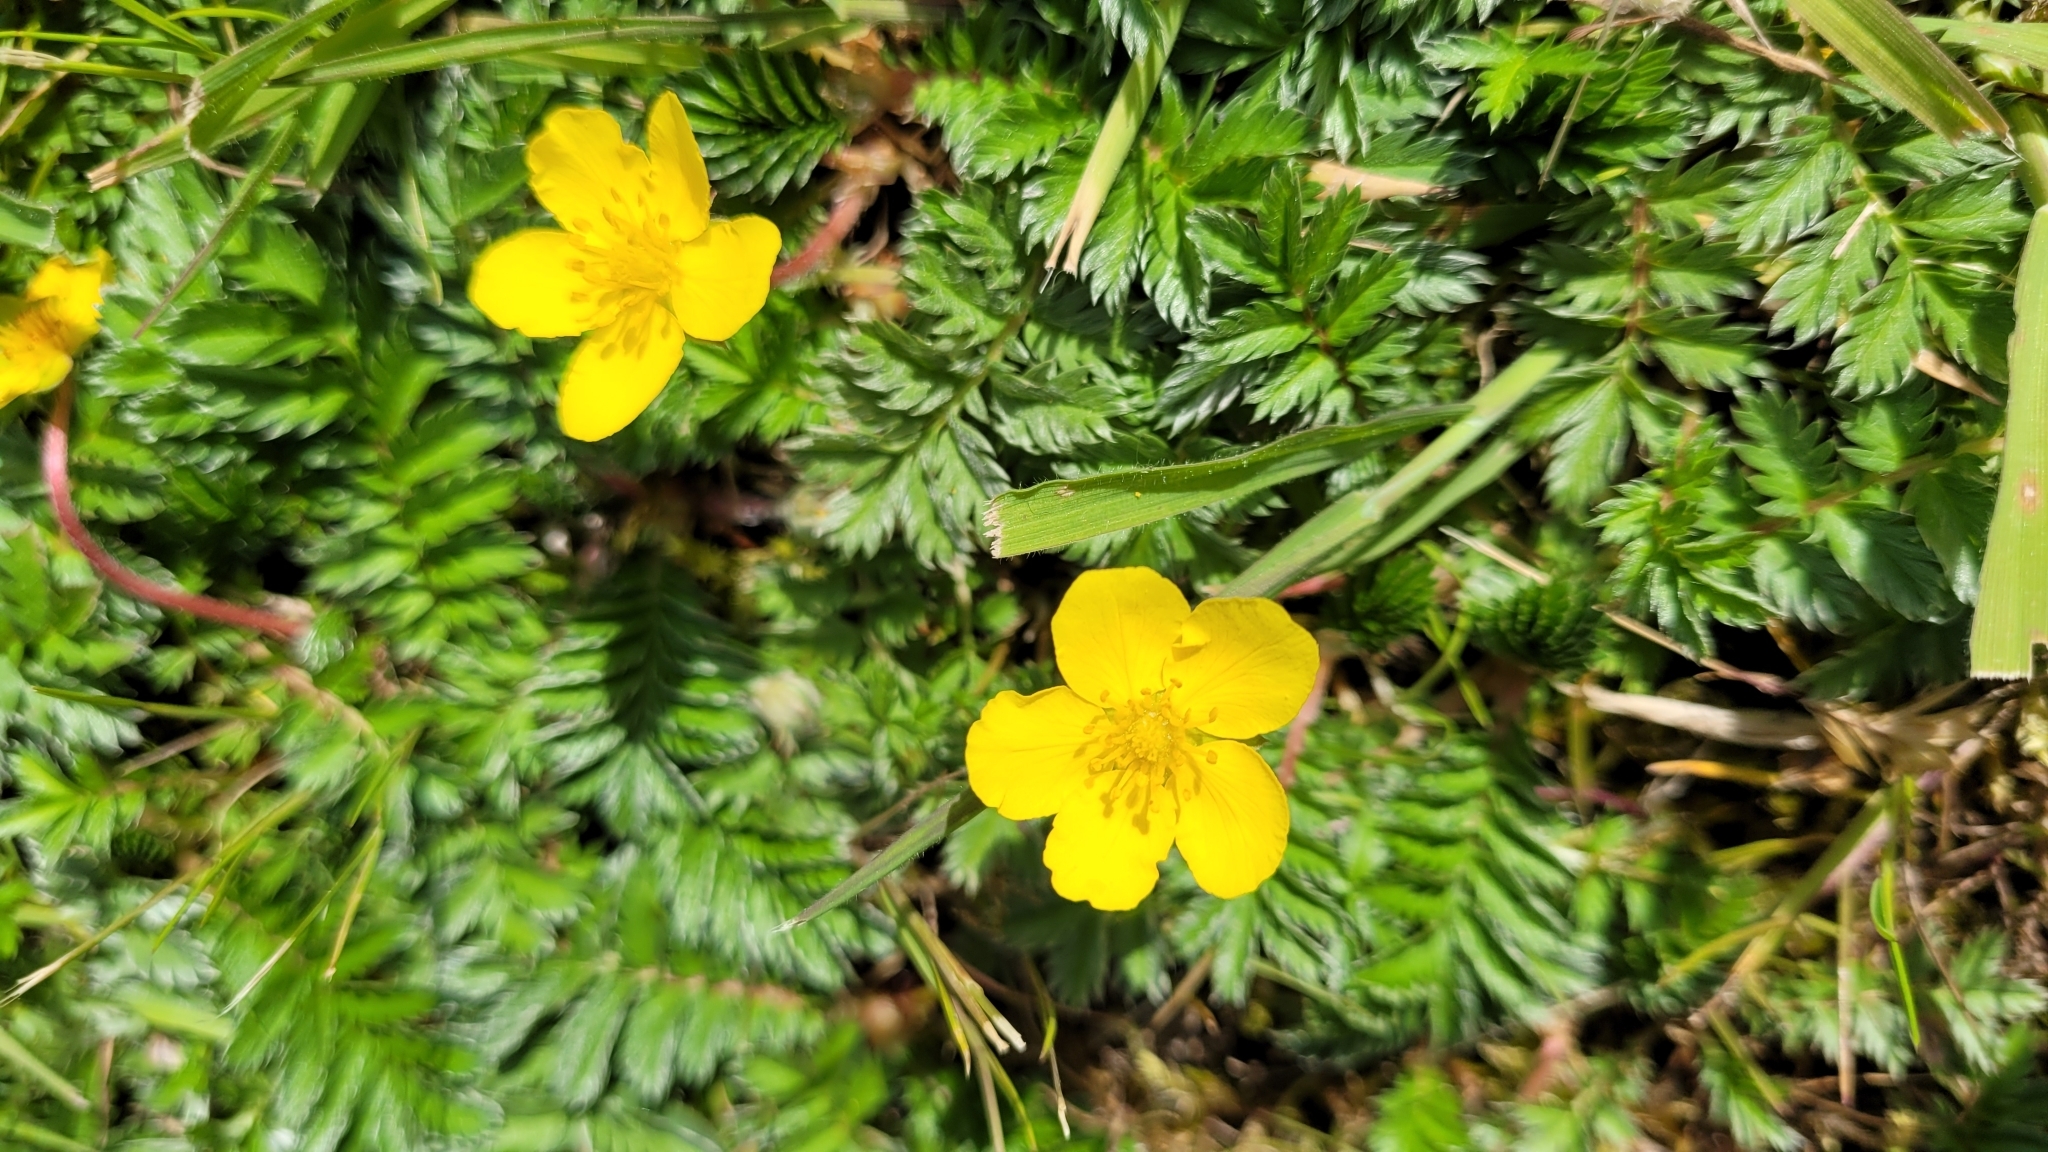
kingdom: Plantae
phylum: Tracheophyta
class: Magnoliopsida
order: Rosales
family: Rosaceae
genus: Argentina
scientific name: Argentina anserina
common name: Common silverweed
